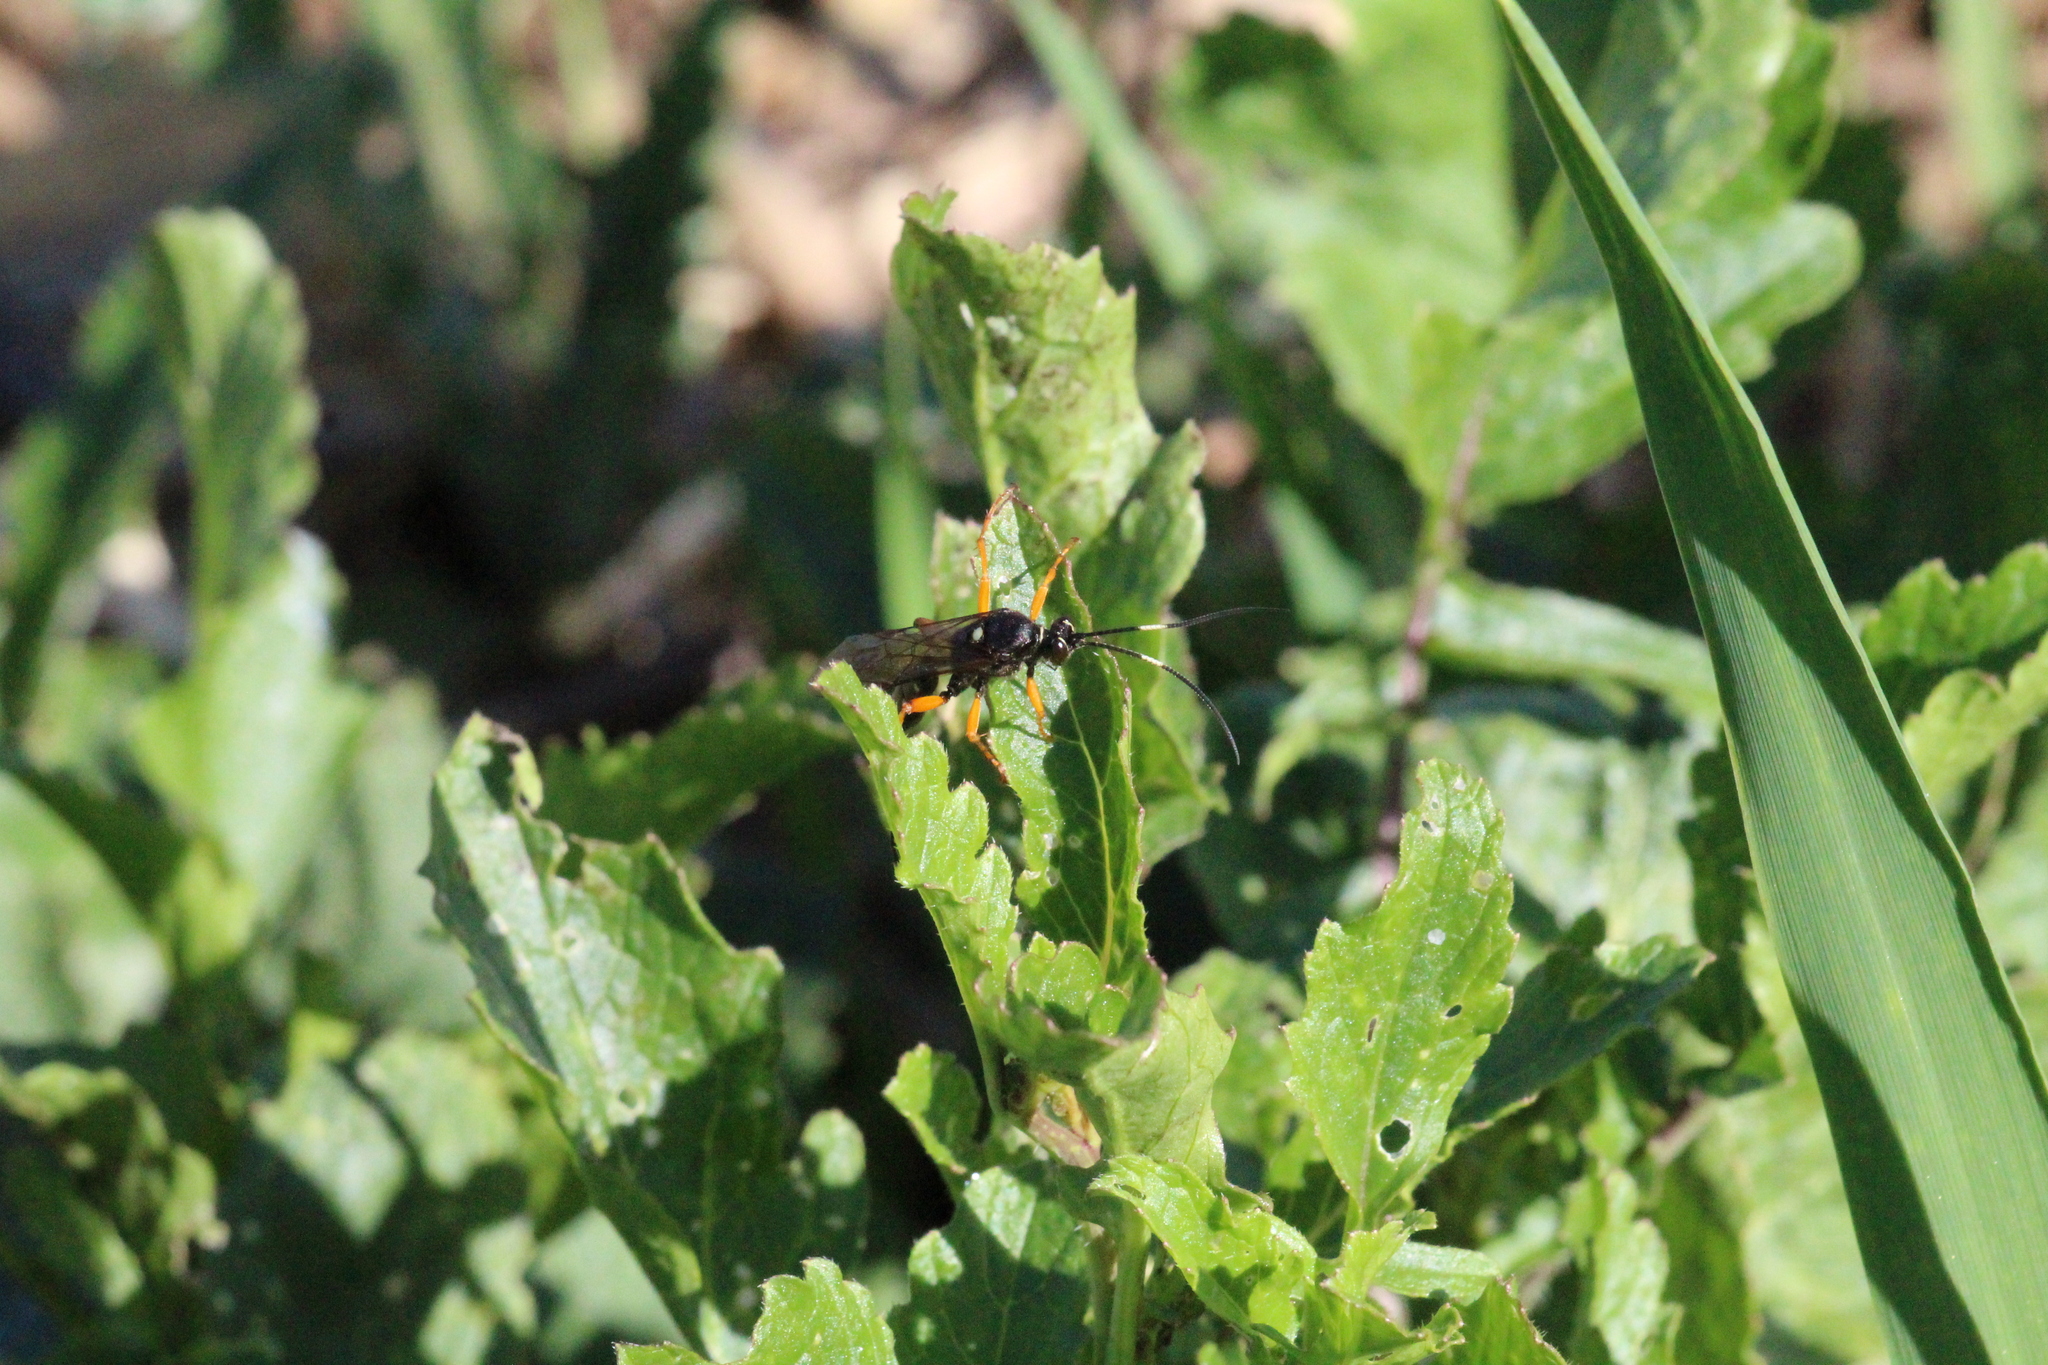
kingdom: Animalia
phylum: Arthropoda
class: Insecta
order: Hymenoptera
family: Ichneumonidae
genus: Diphyus
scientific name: Diphyus quadripunctorius
